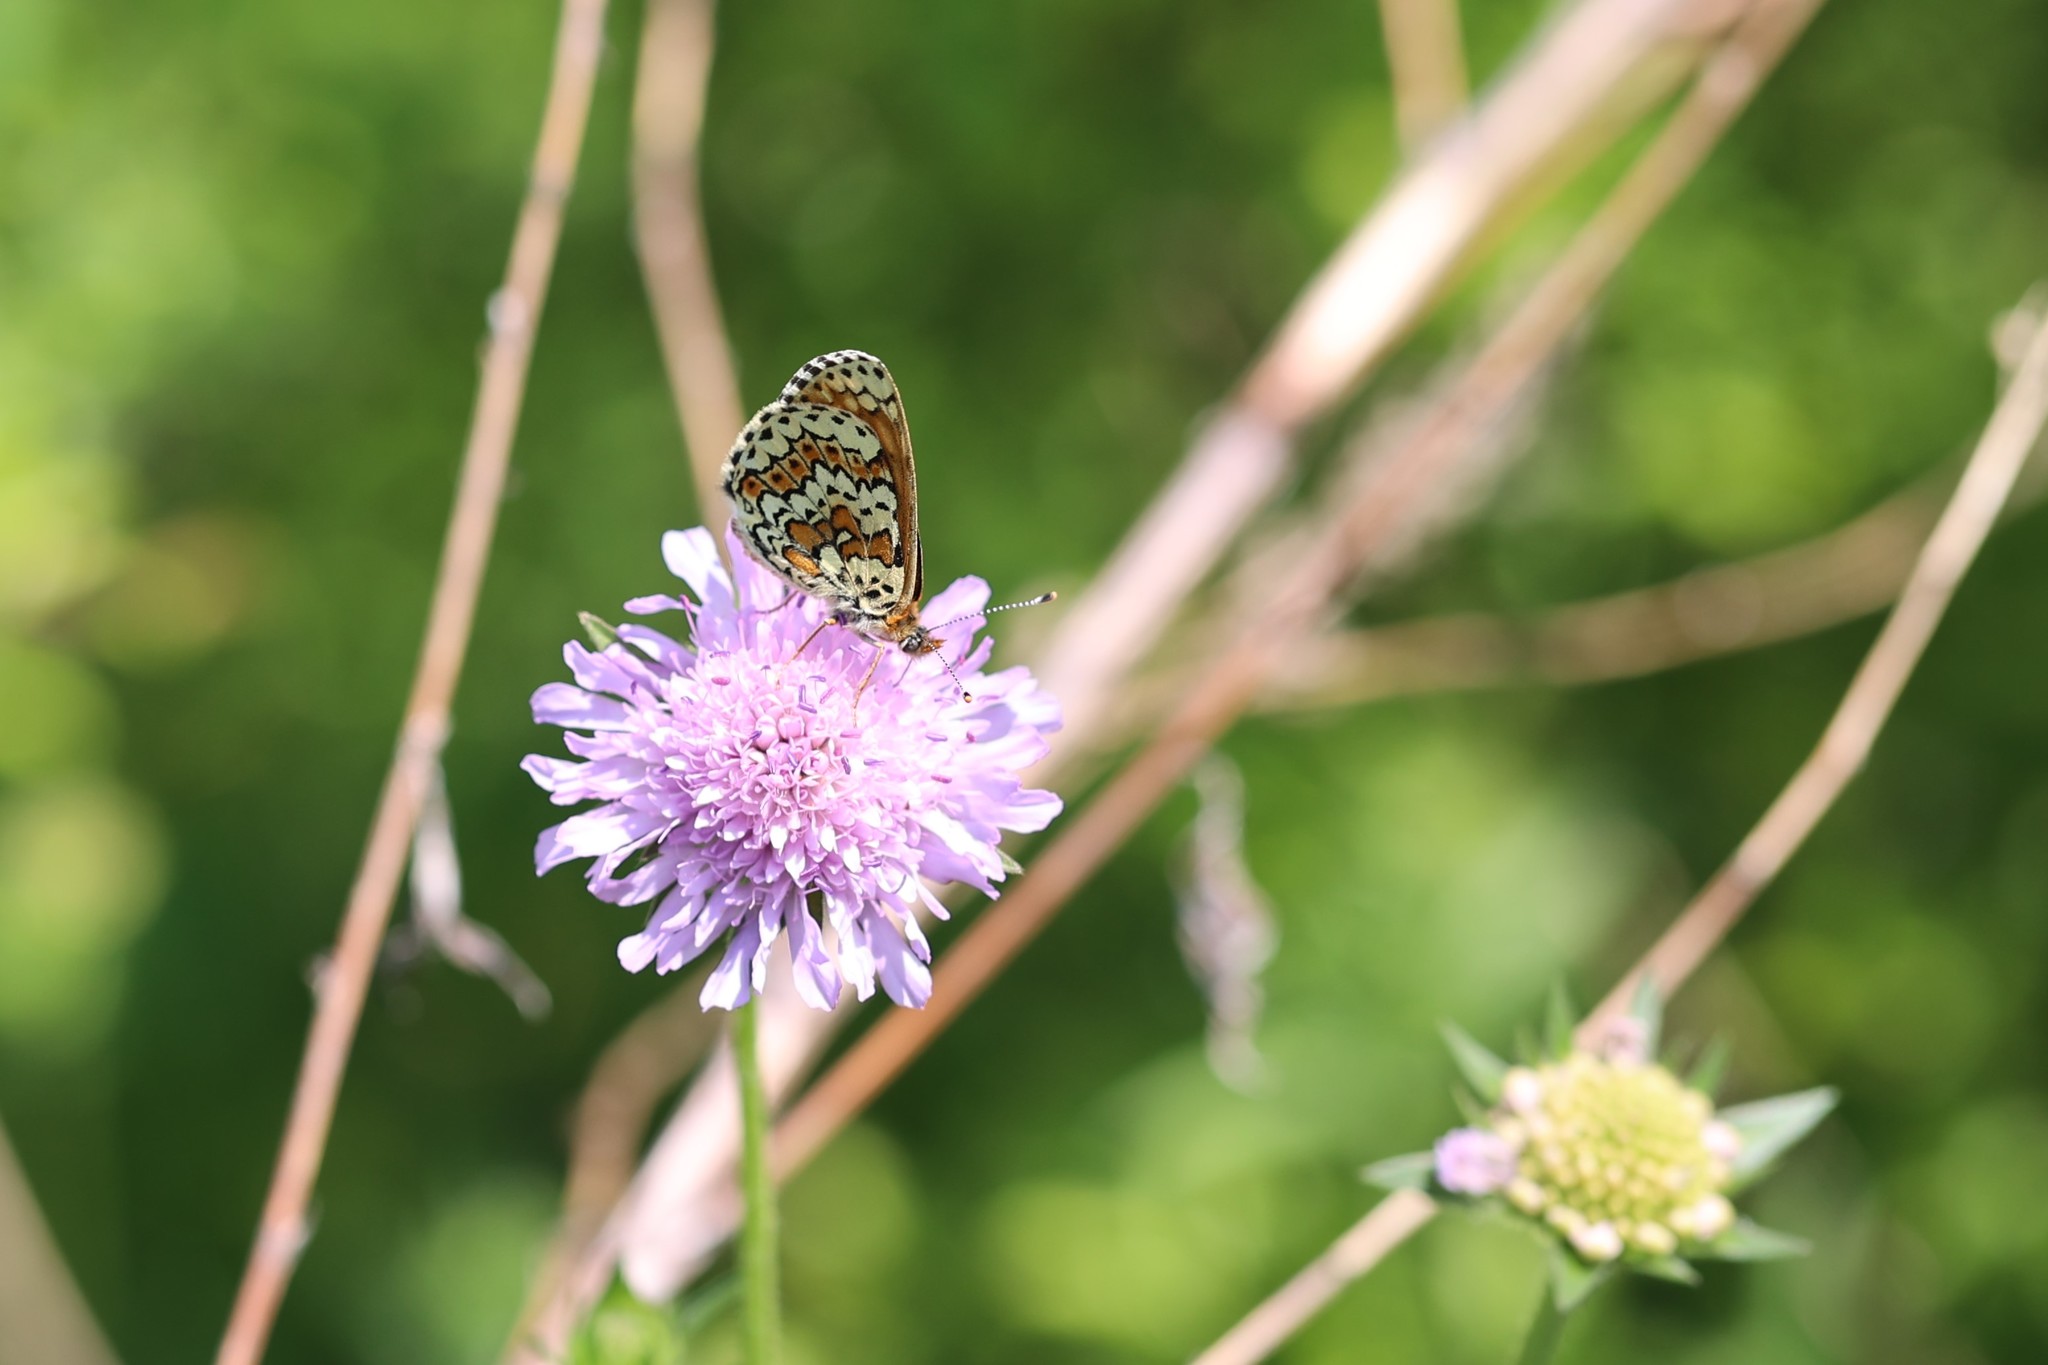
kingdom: Animalia
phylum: Arthropoda
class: Insecta
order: Lepidoptera
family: Nymphalidae
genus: Melitaea
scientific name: Melitaea cinxia
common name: Glanville fritillary
